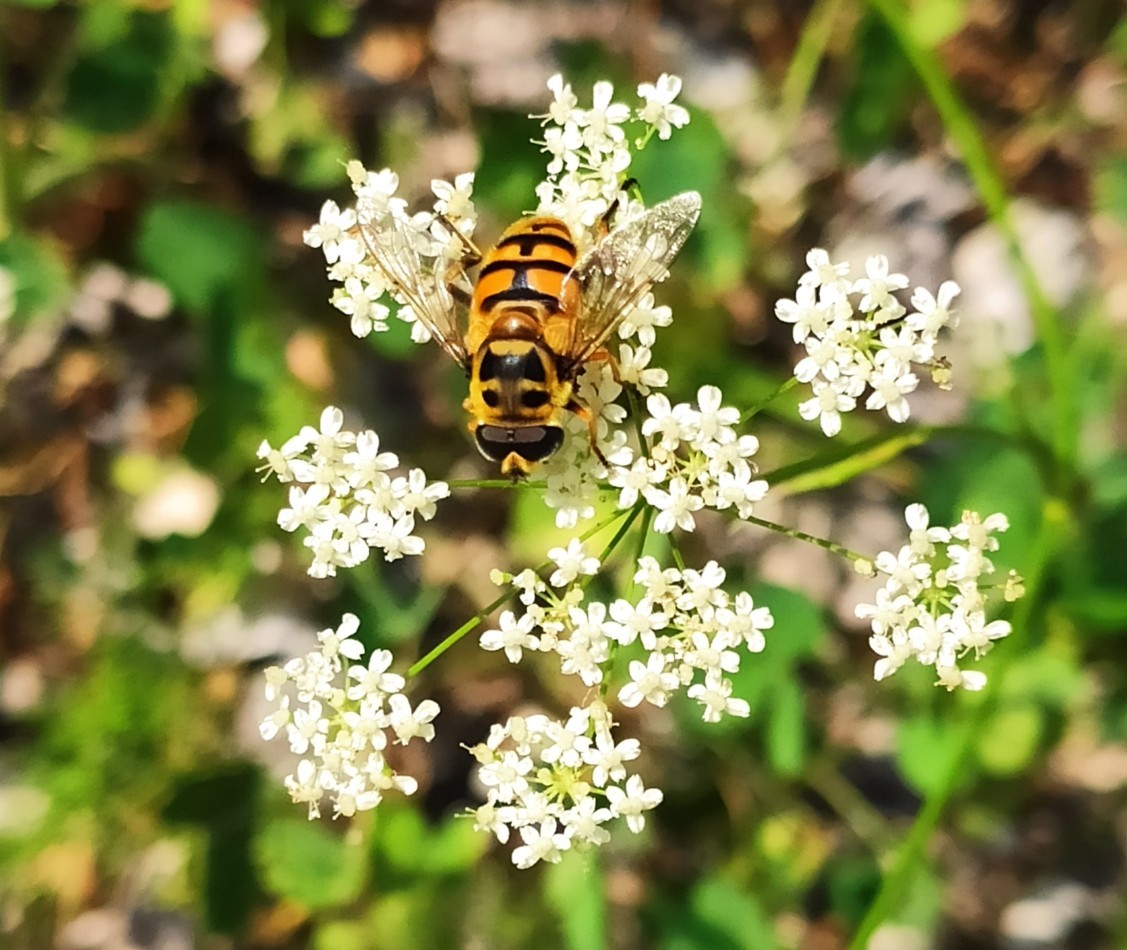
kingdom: Animalia
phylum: Arthropoda
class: Insecta
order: Diptera
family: Syrphidae
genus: Myathropa
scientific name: Myathropa florea
